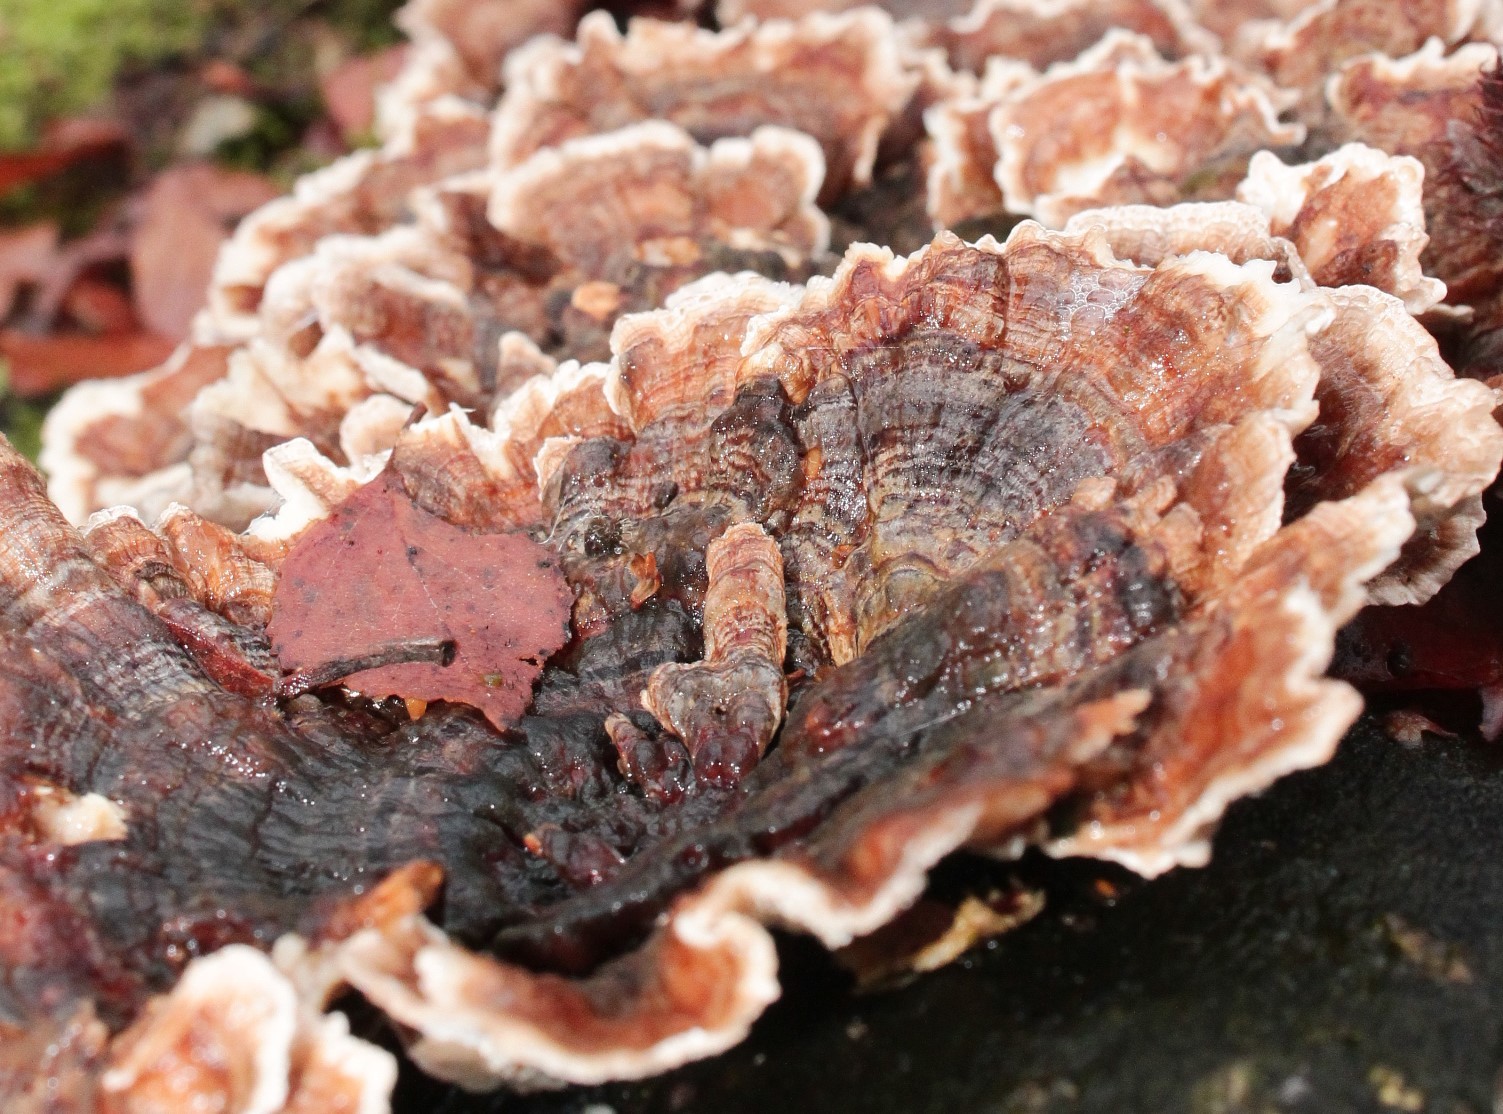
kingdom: Fungi
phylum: Basidiomycota
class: Agaricomycetes
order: Polyporales
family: Polyporaceae
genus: Trametes
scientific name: Trametes versicolor
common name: Turkeytail
